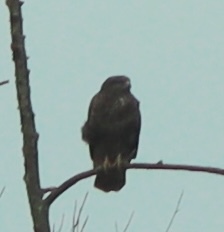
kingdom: Animalia
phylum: Chordata
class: Aves
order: Accipitriformes
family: Accipitridae
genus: Buteo
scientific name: Buteo buteo
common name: Common buzzard
